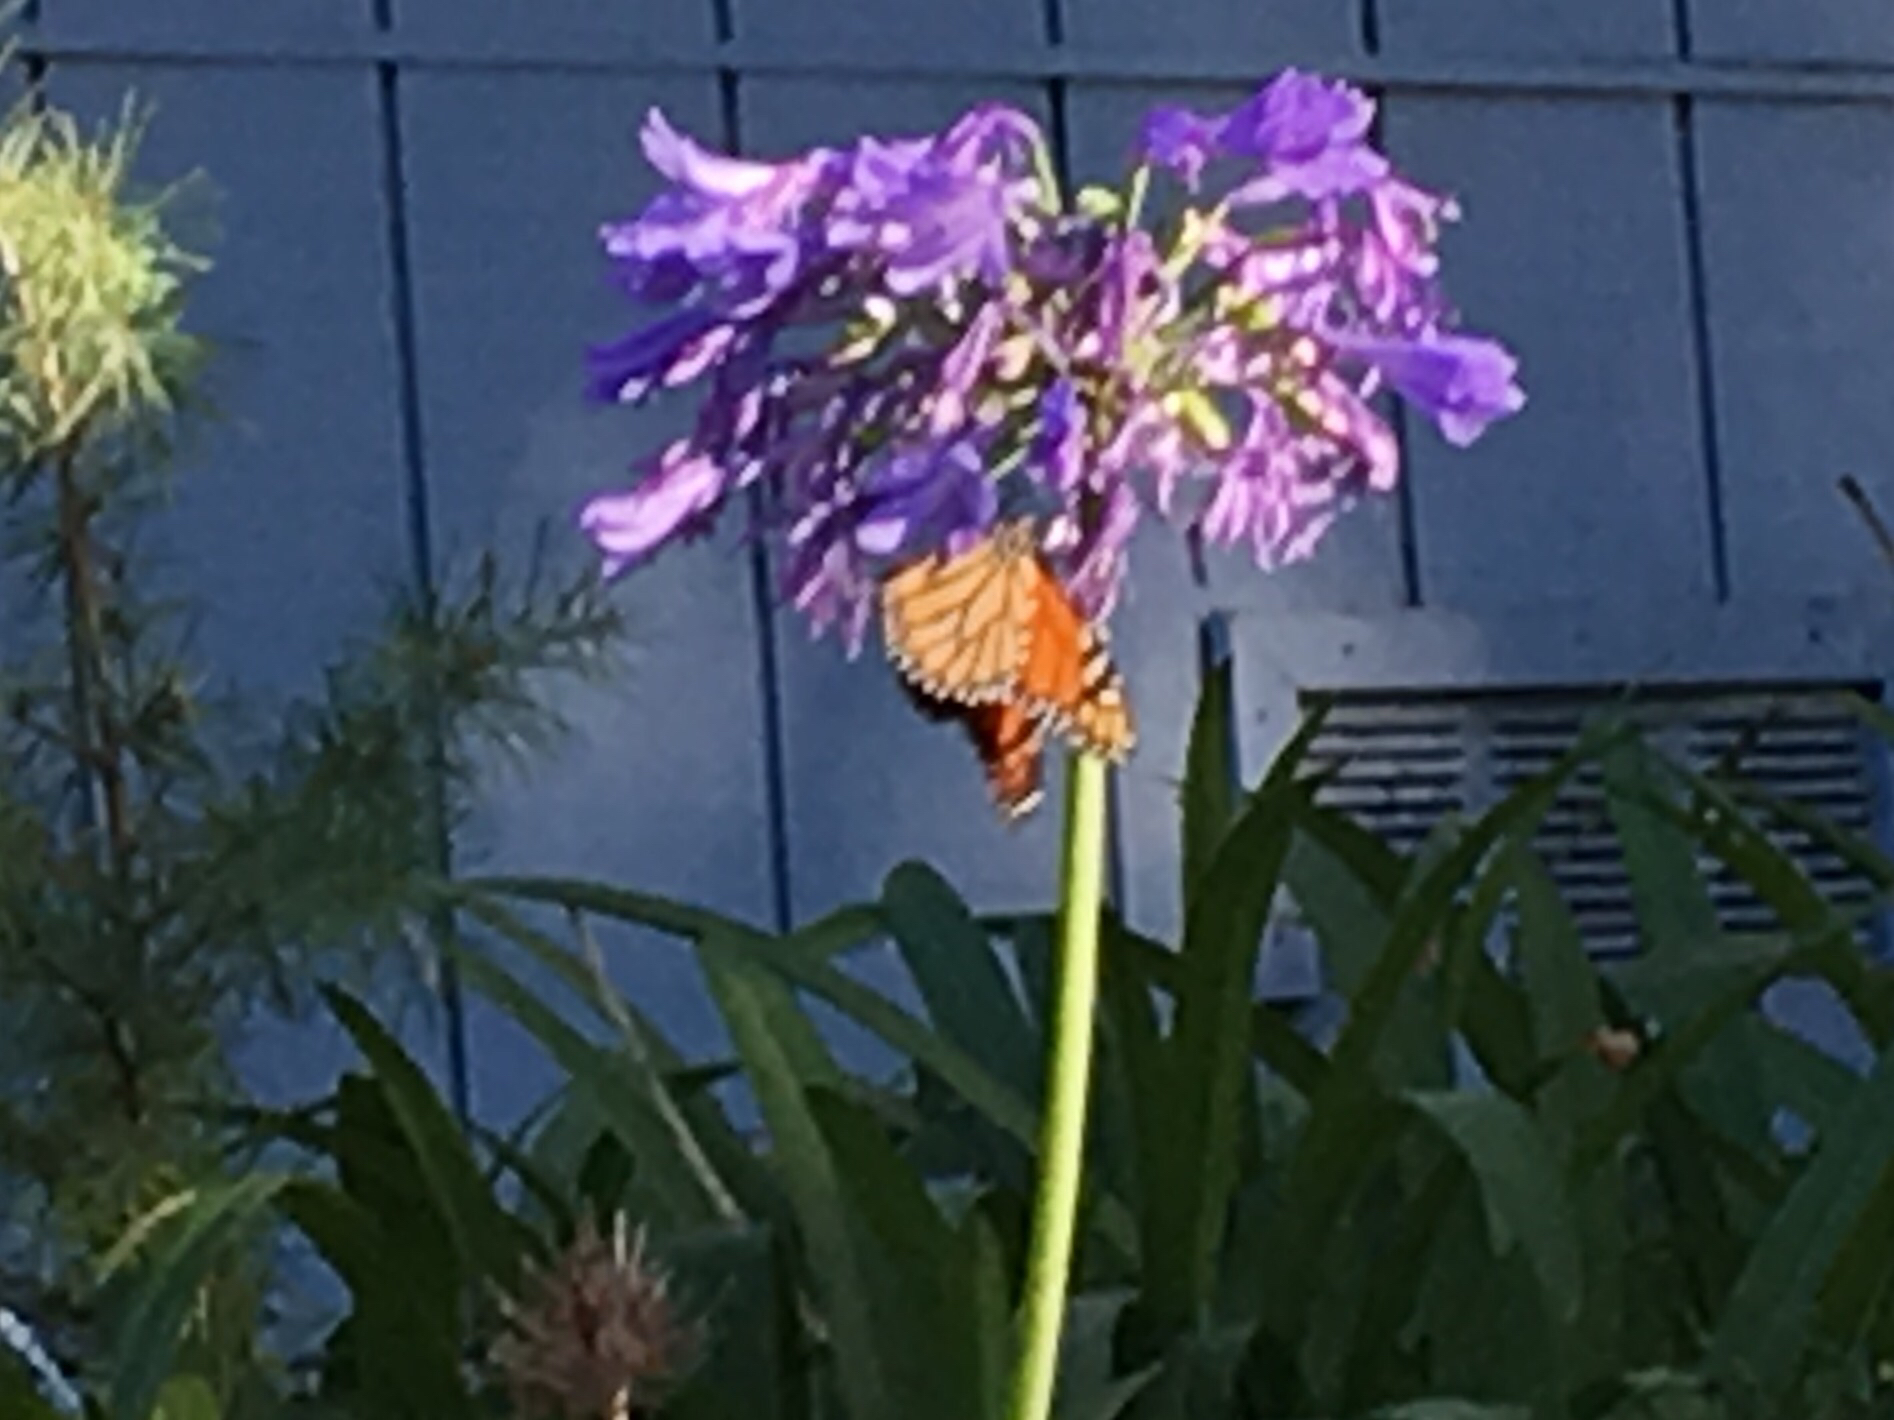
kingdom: Animalia
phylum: Arthropoda
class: Insecta
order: Lepidoptera
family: Nymphalidae
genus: Danaus
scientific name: Danaus plexippus
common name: Monarch
